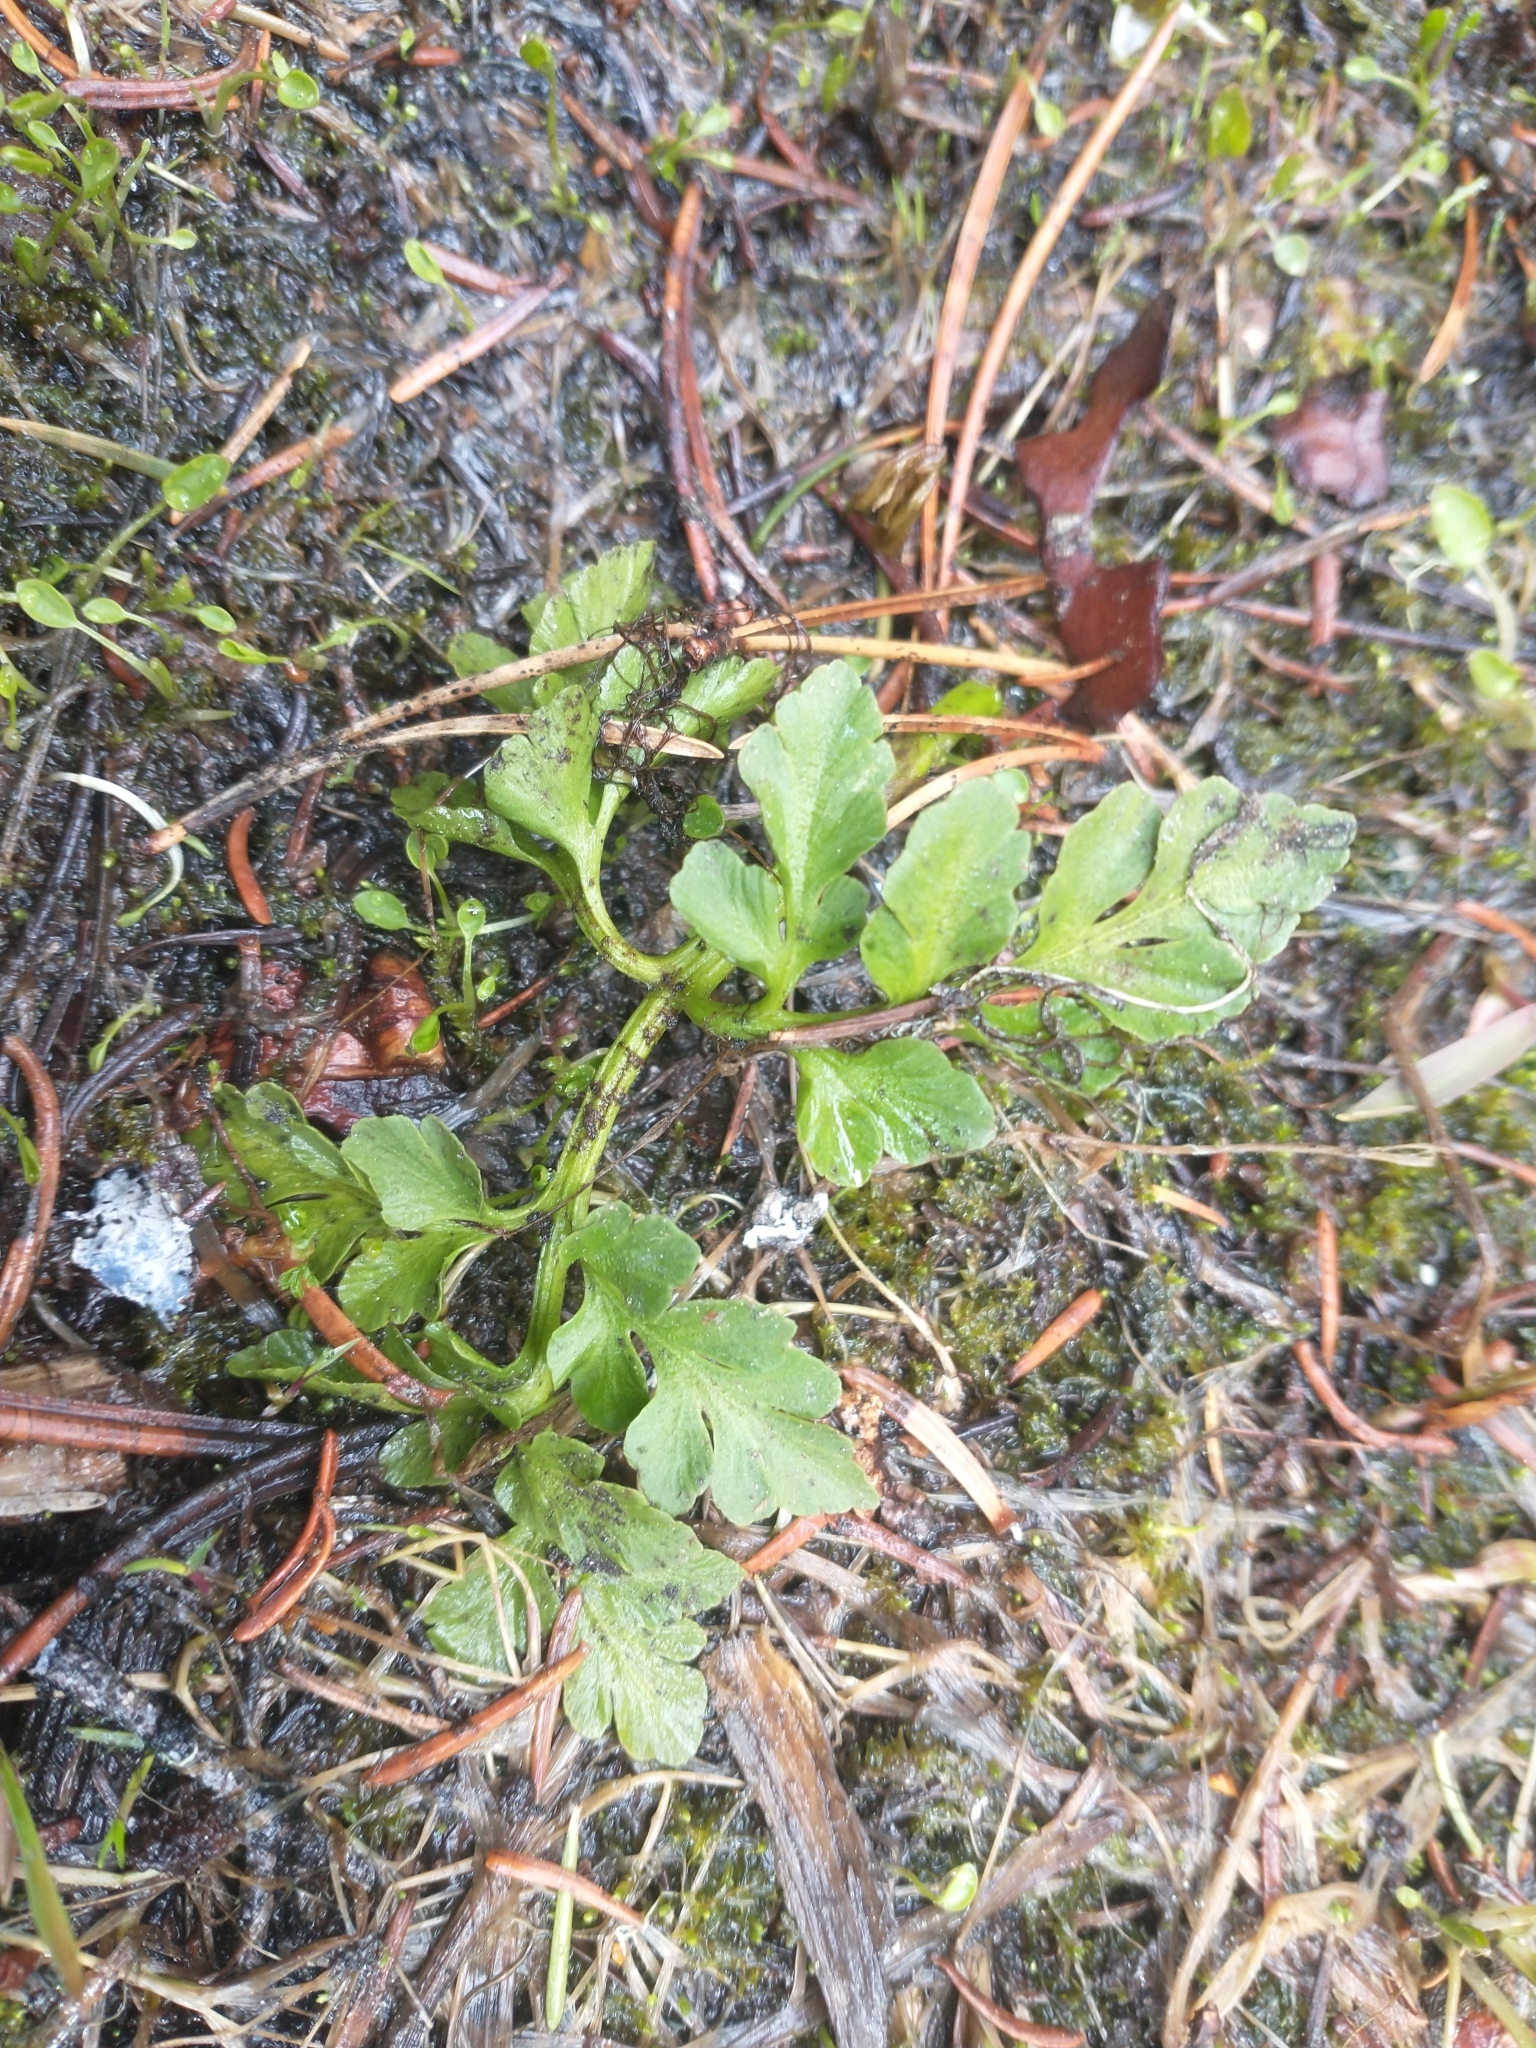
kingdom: Plantae
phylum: Tracheophyta
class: Polypodiopsida
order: Ophioglossales
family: Ophioglossaceae
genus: Sceptridium
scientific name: Sceptridium multifidum
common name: Leathery grape fern
